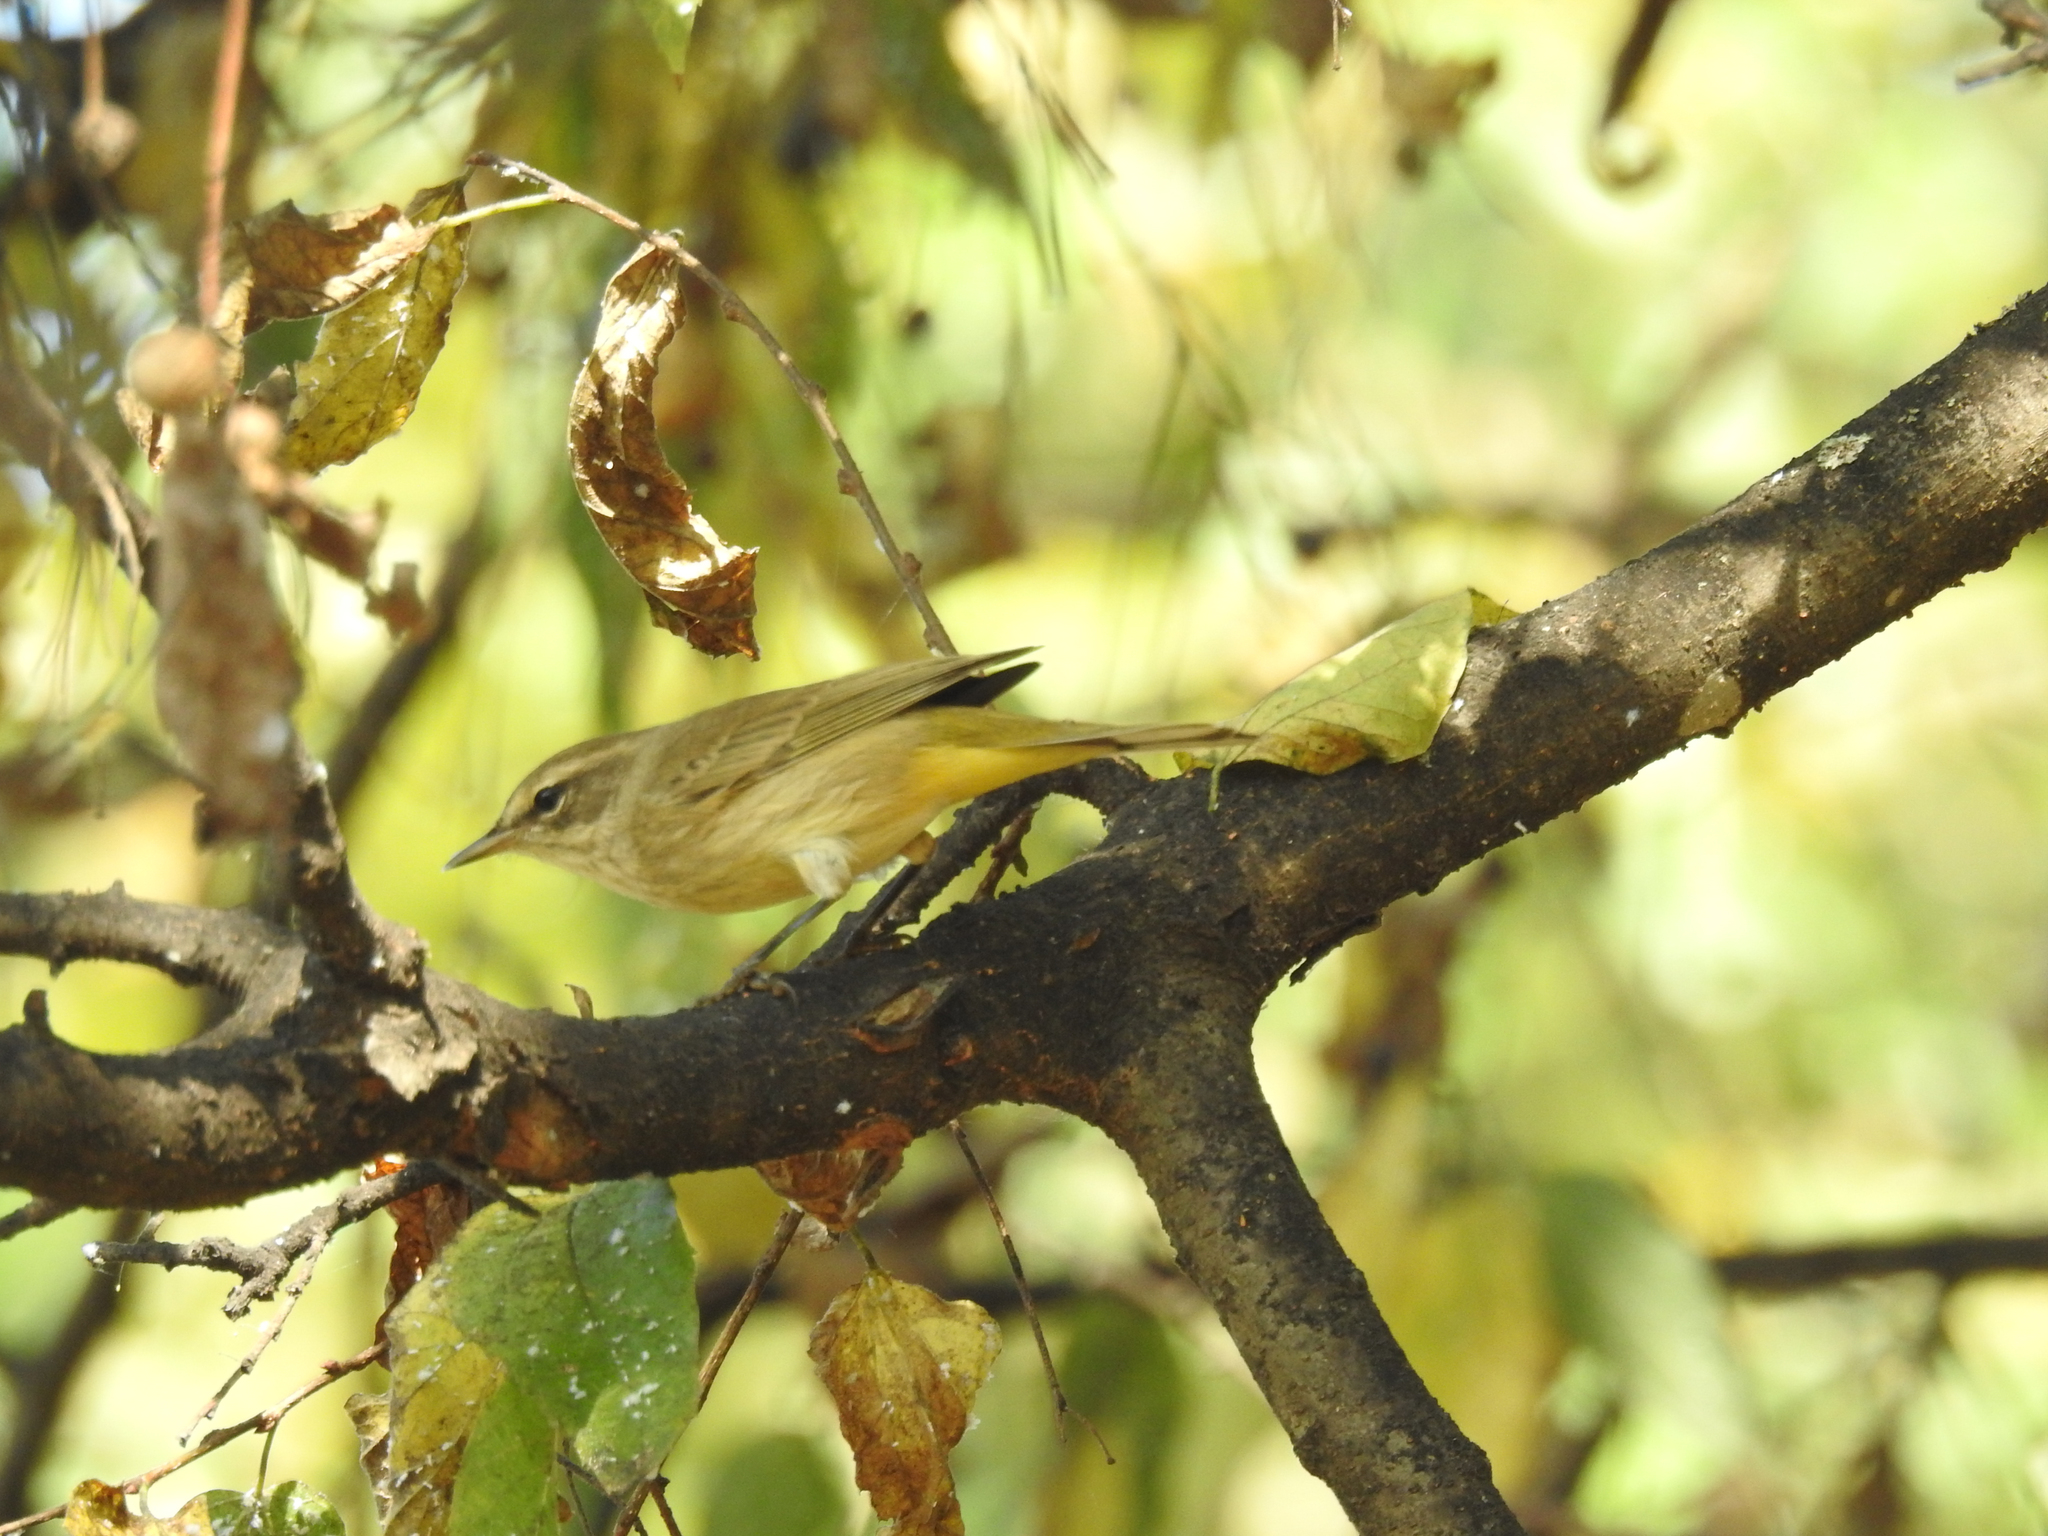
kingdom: Animalia
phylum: Chordata
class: Aves
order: Passeriformes
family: Parulidae
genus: Setophaga
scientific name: Setophaga palmarum
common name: Palm warbler
